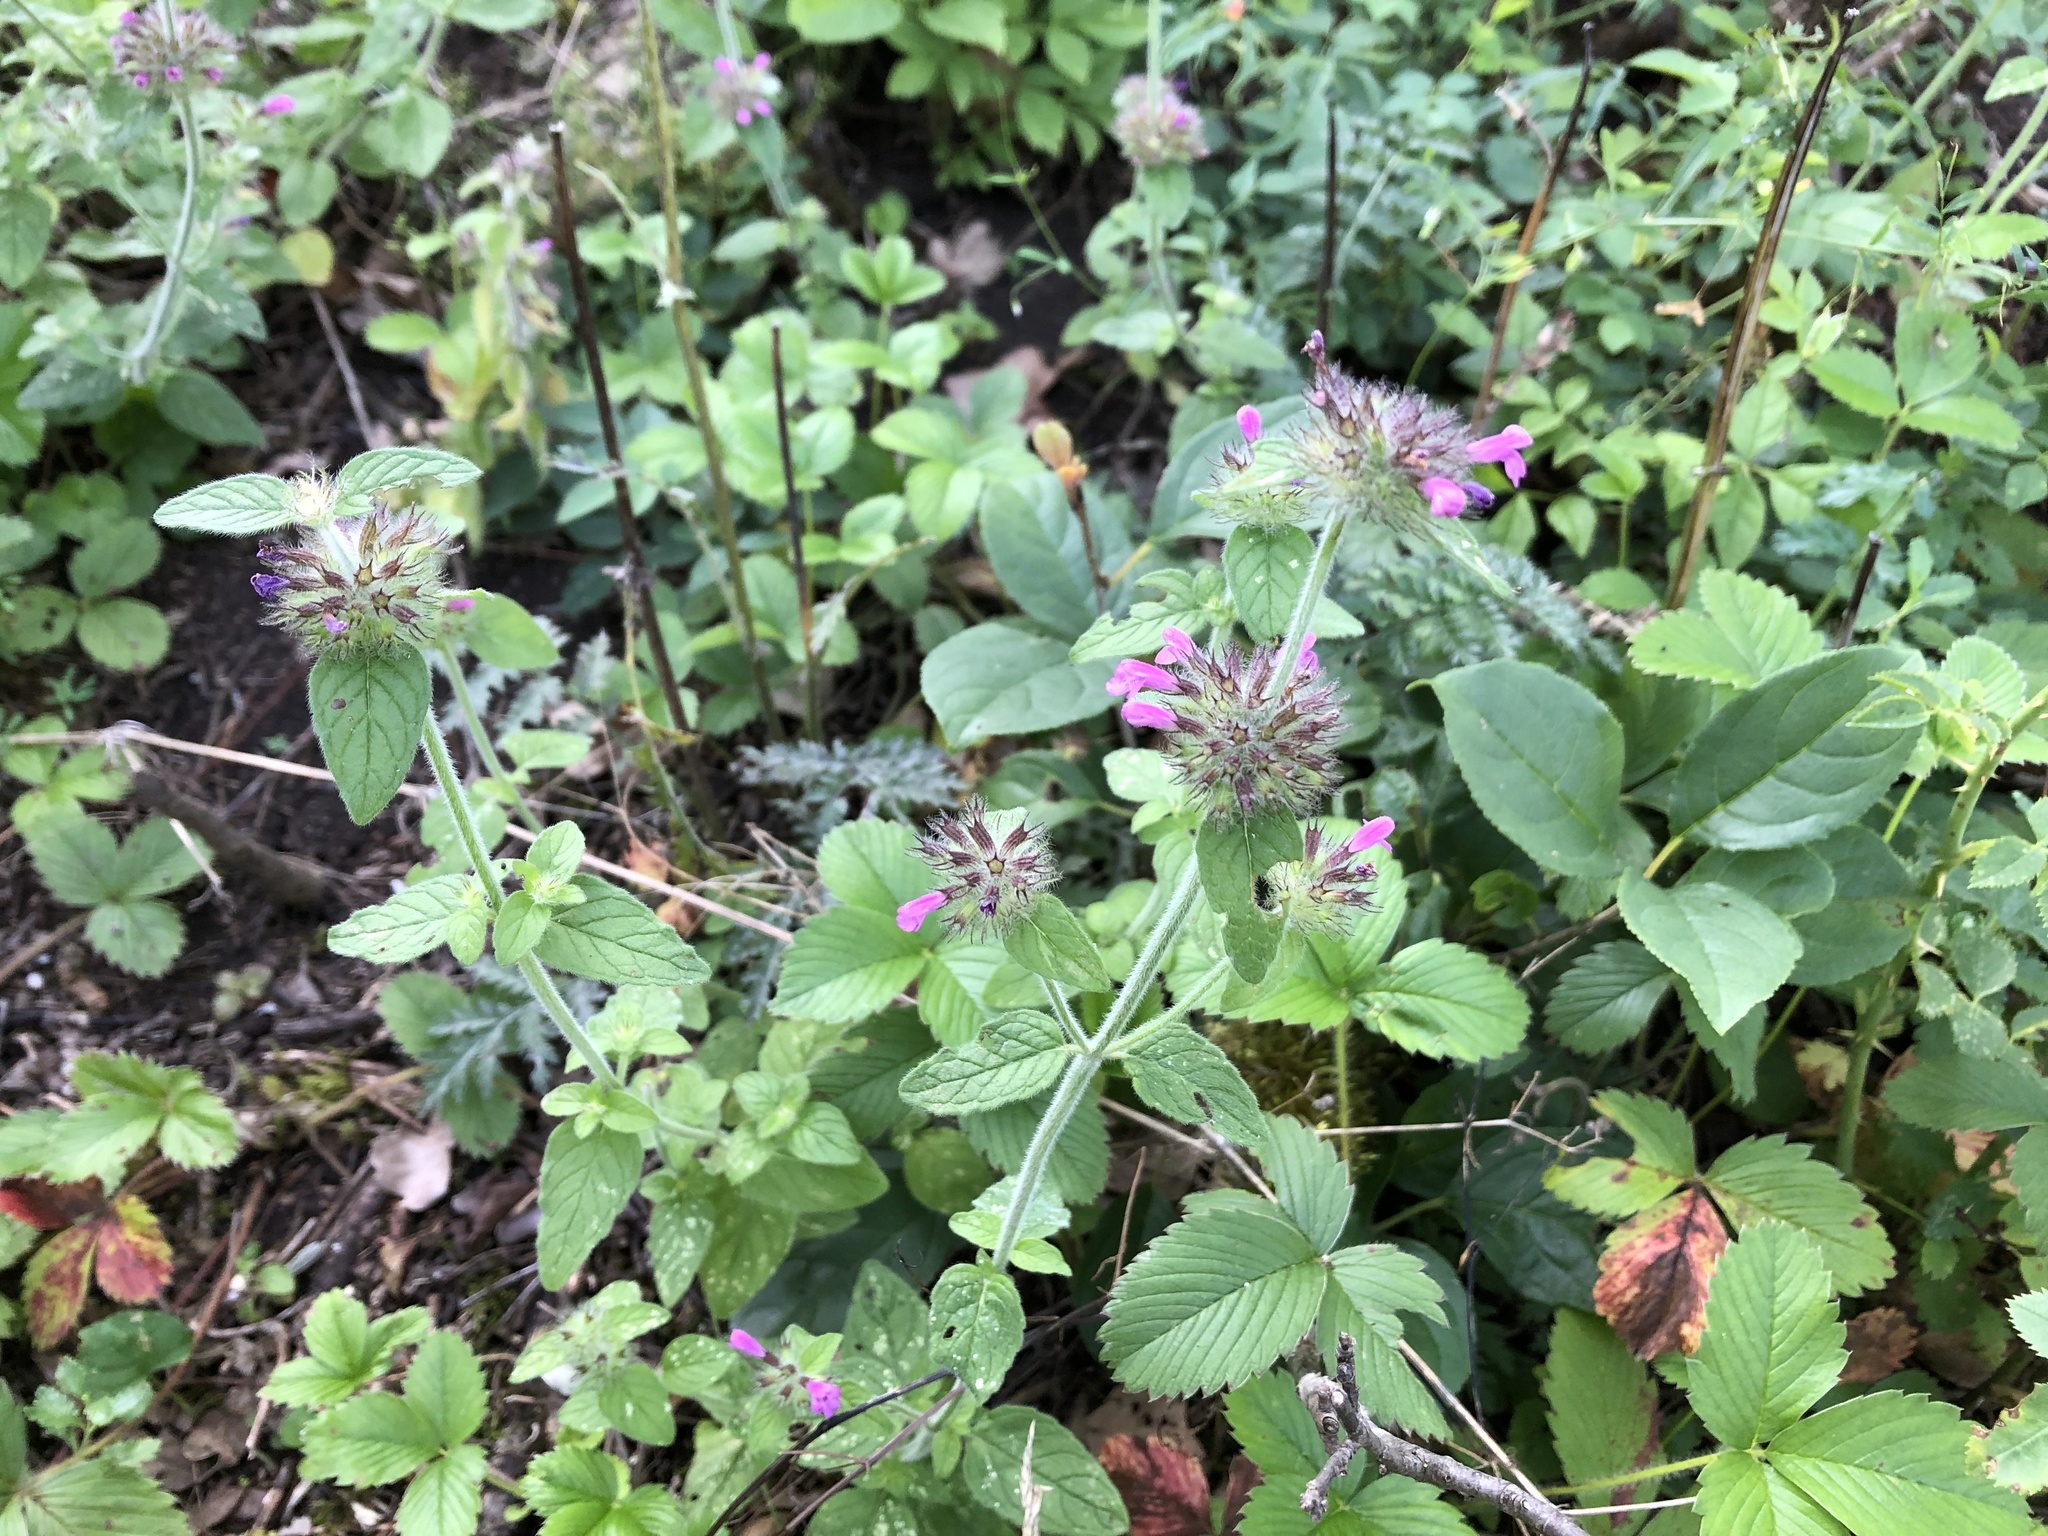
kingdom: Plantae
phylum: Tracheophyta
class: Magnoliopsida
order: Lamiales
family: Lamiaceae
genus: Clinopodium
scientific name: Clinopodium vulgare
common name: Wild basil
